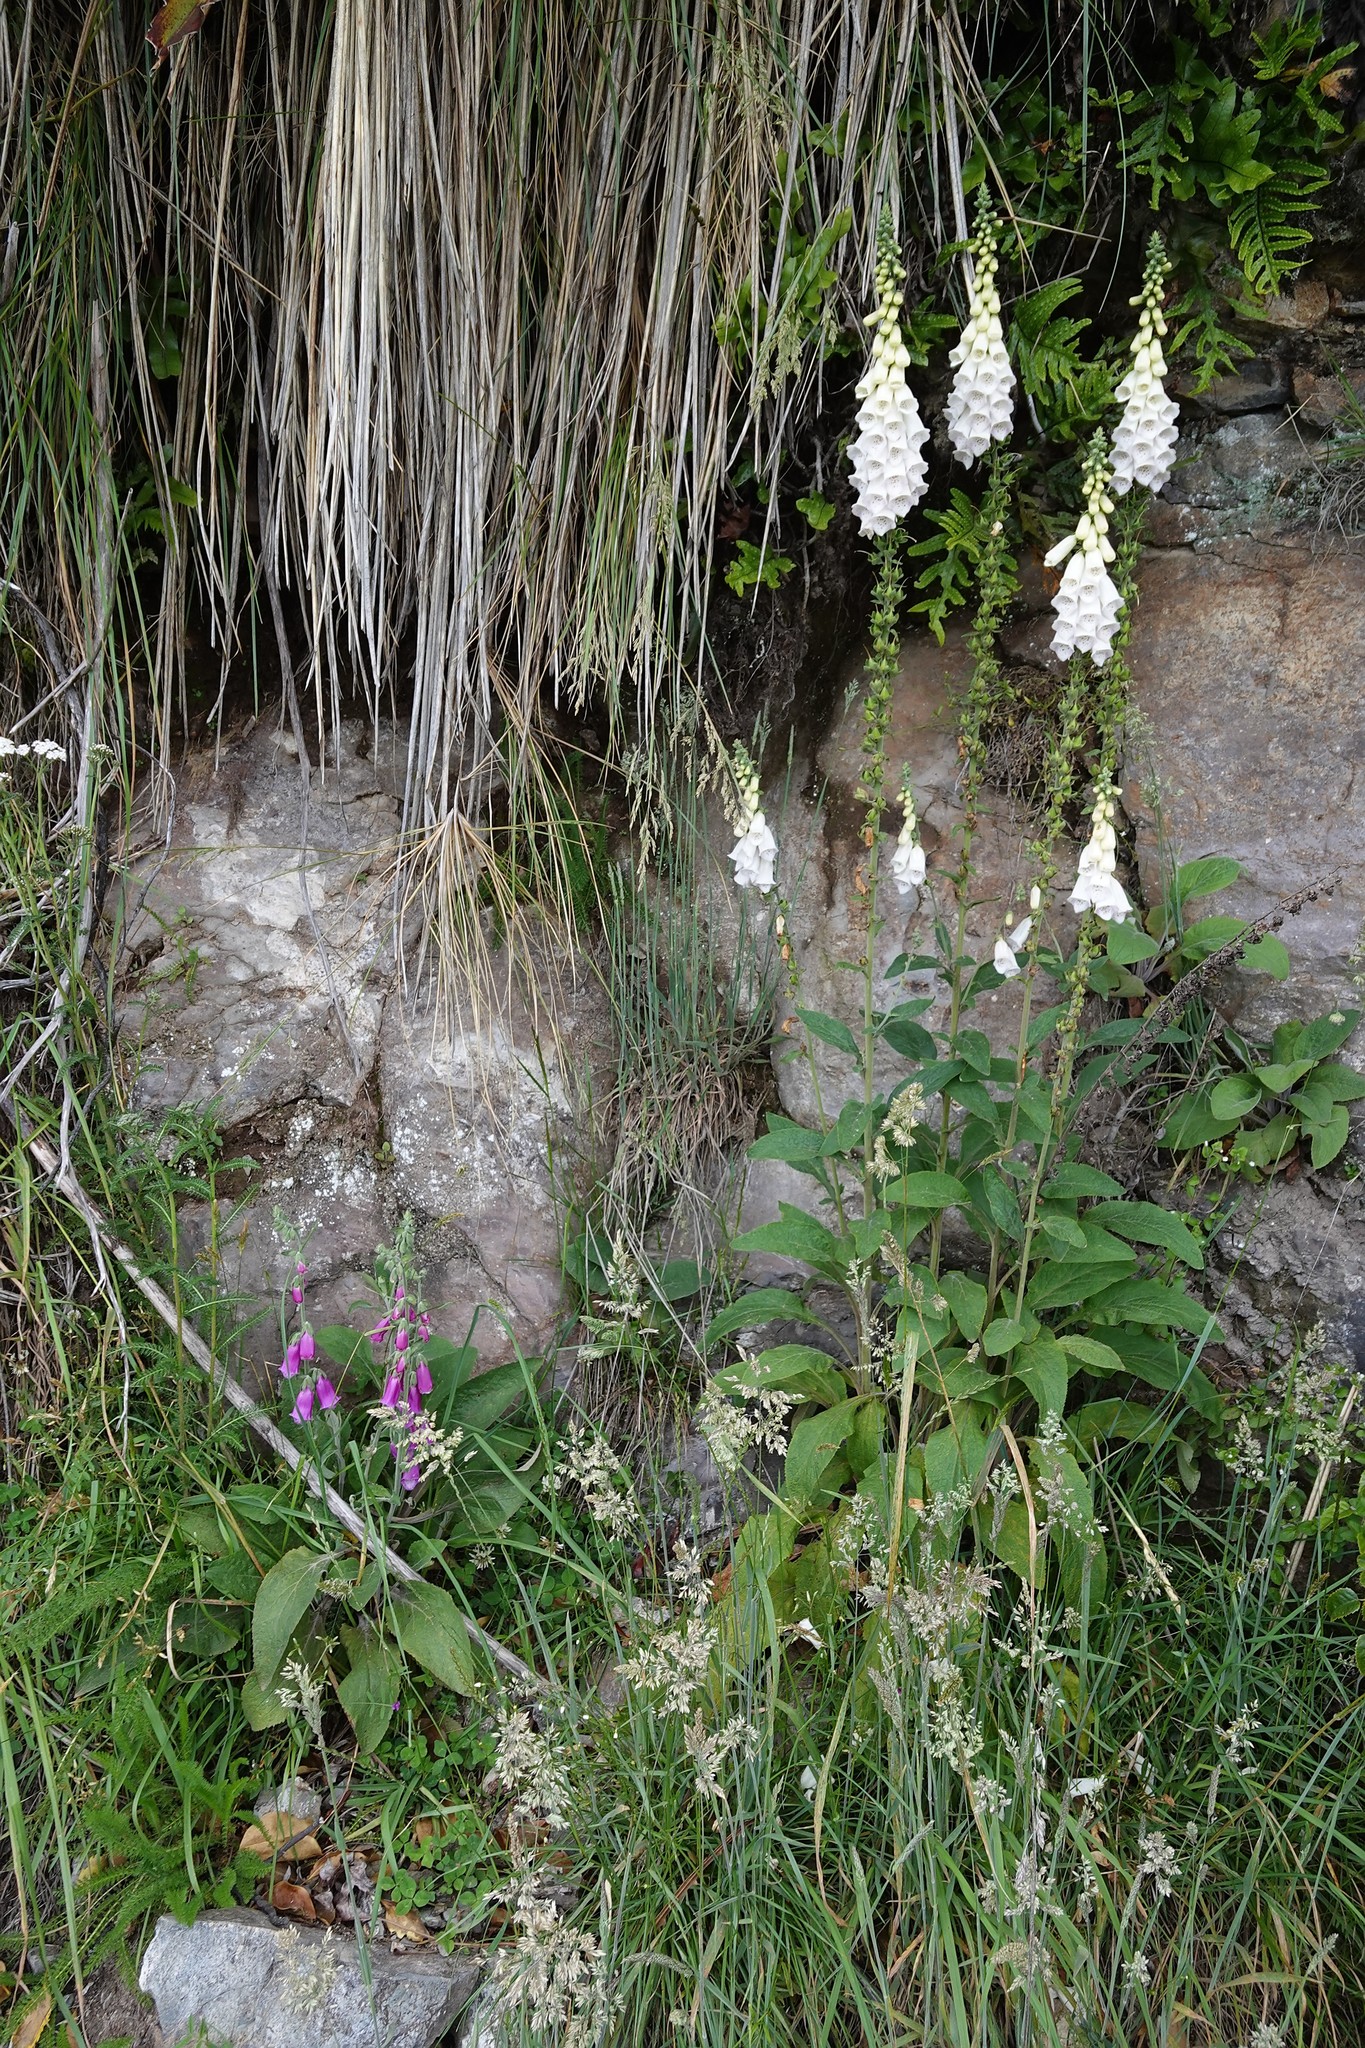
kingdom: Plantae
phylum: Tracheophyta
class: Magnoliopsida
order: Lamiales
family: Plantaginaceae
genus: Digitalis
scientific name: Digitalis purpurea
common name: Foxglove
